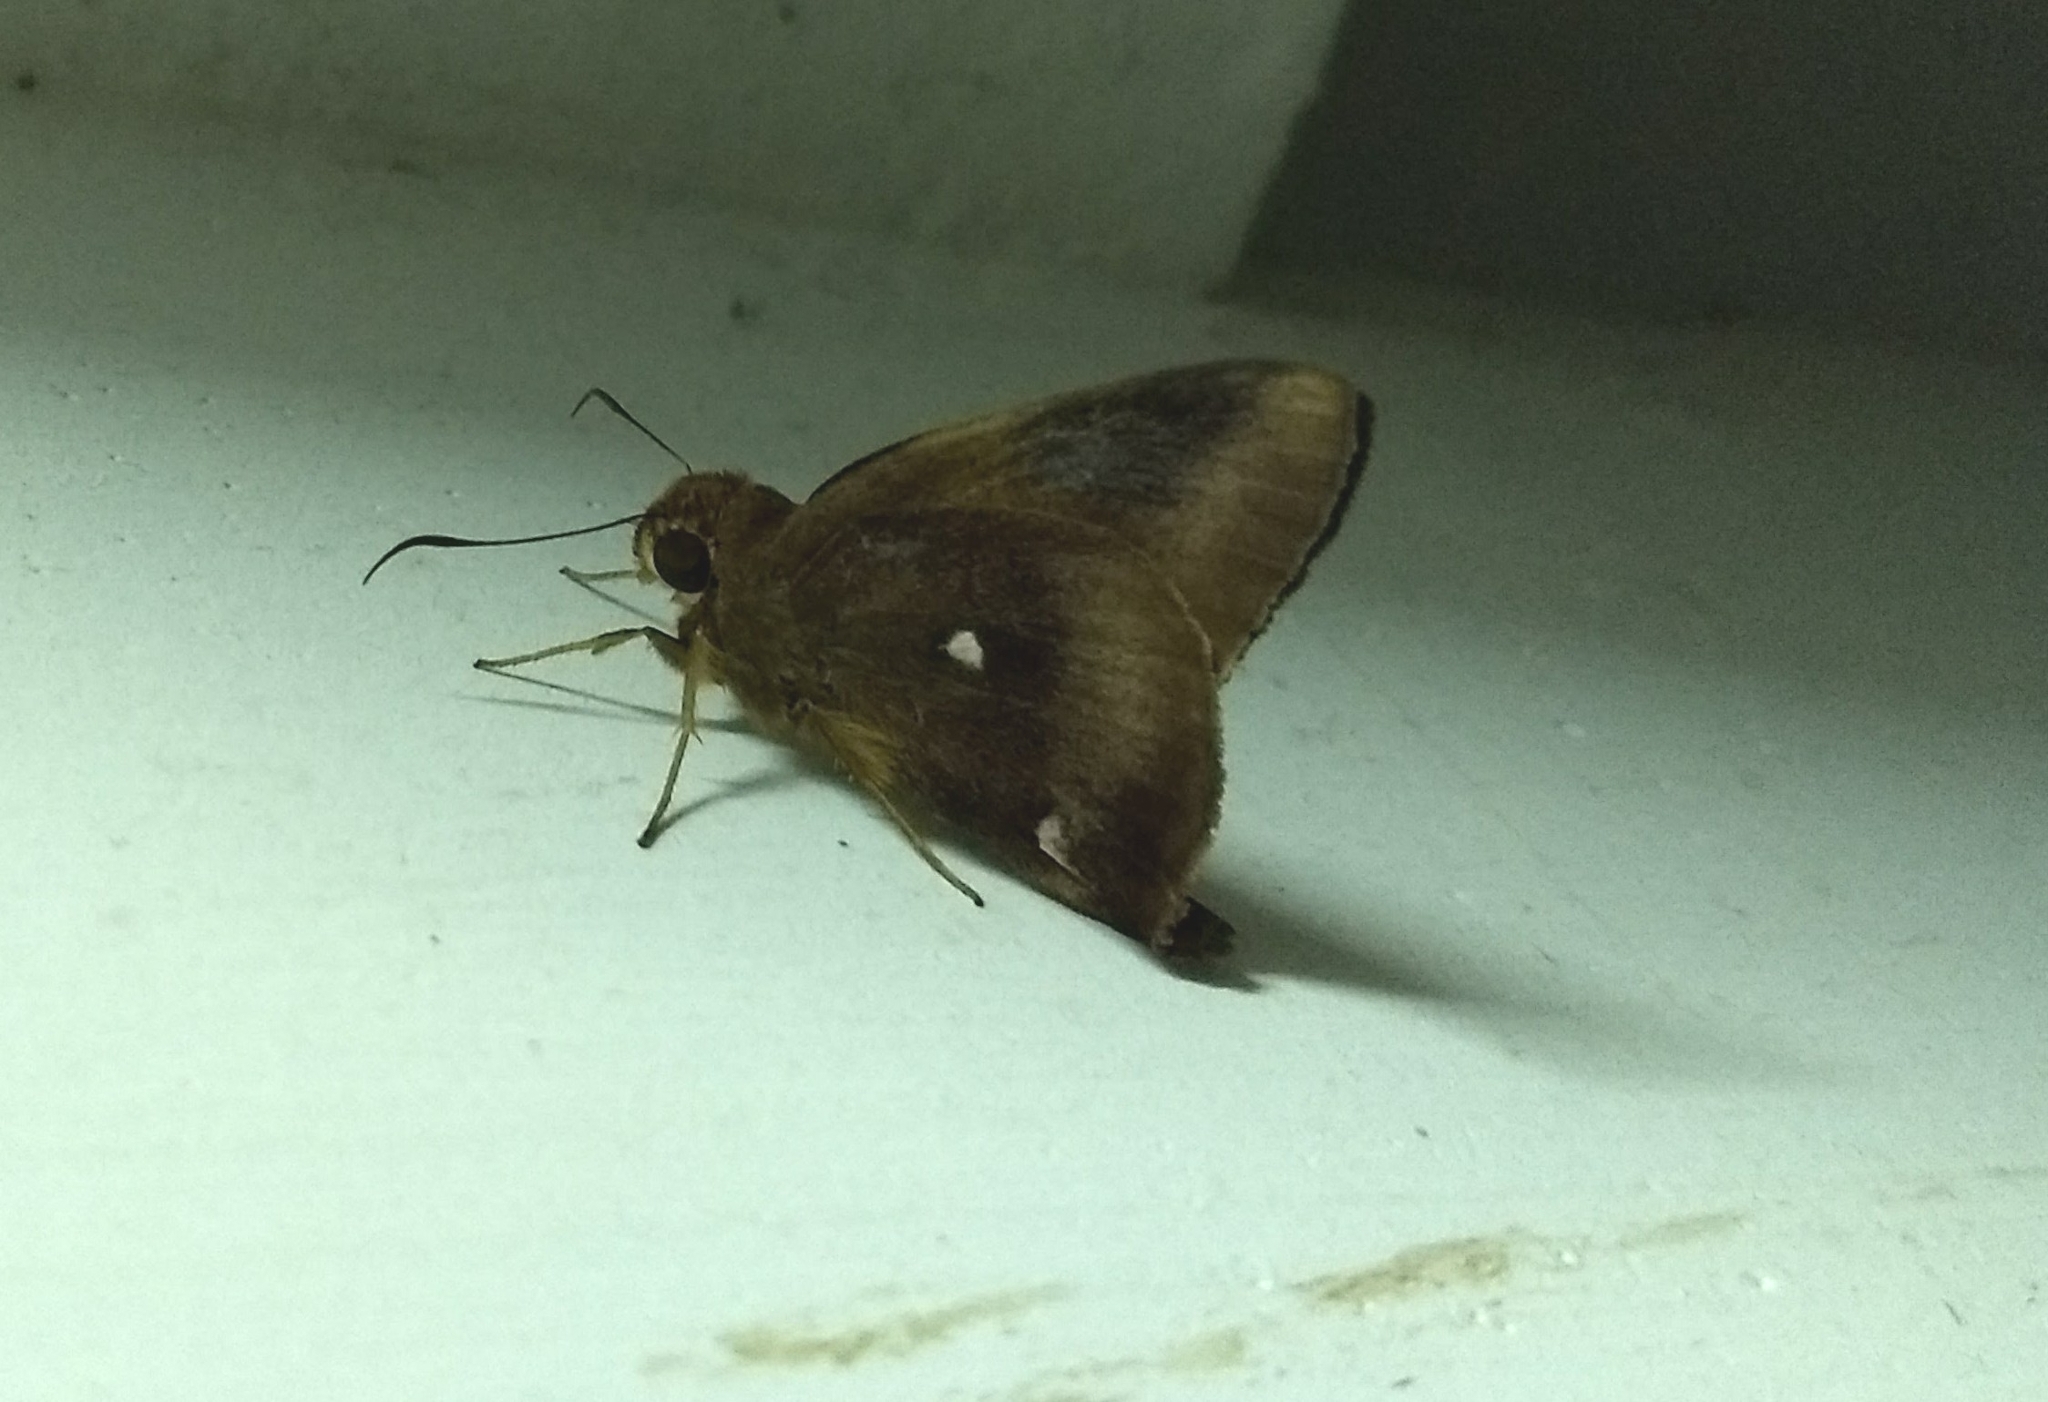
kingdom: Animalia
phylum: Arthropoda
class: Insecta
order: Lepidoptera
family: Hesperiidae
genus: Hasora
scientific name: Hasora badra
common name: Common awl
